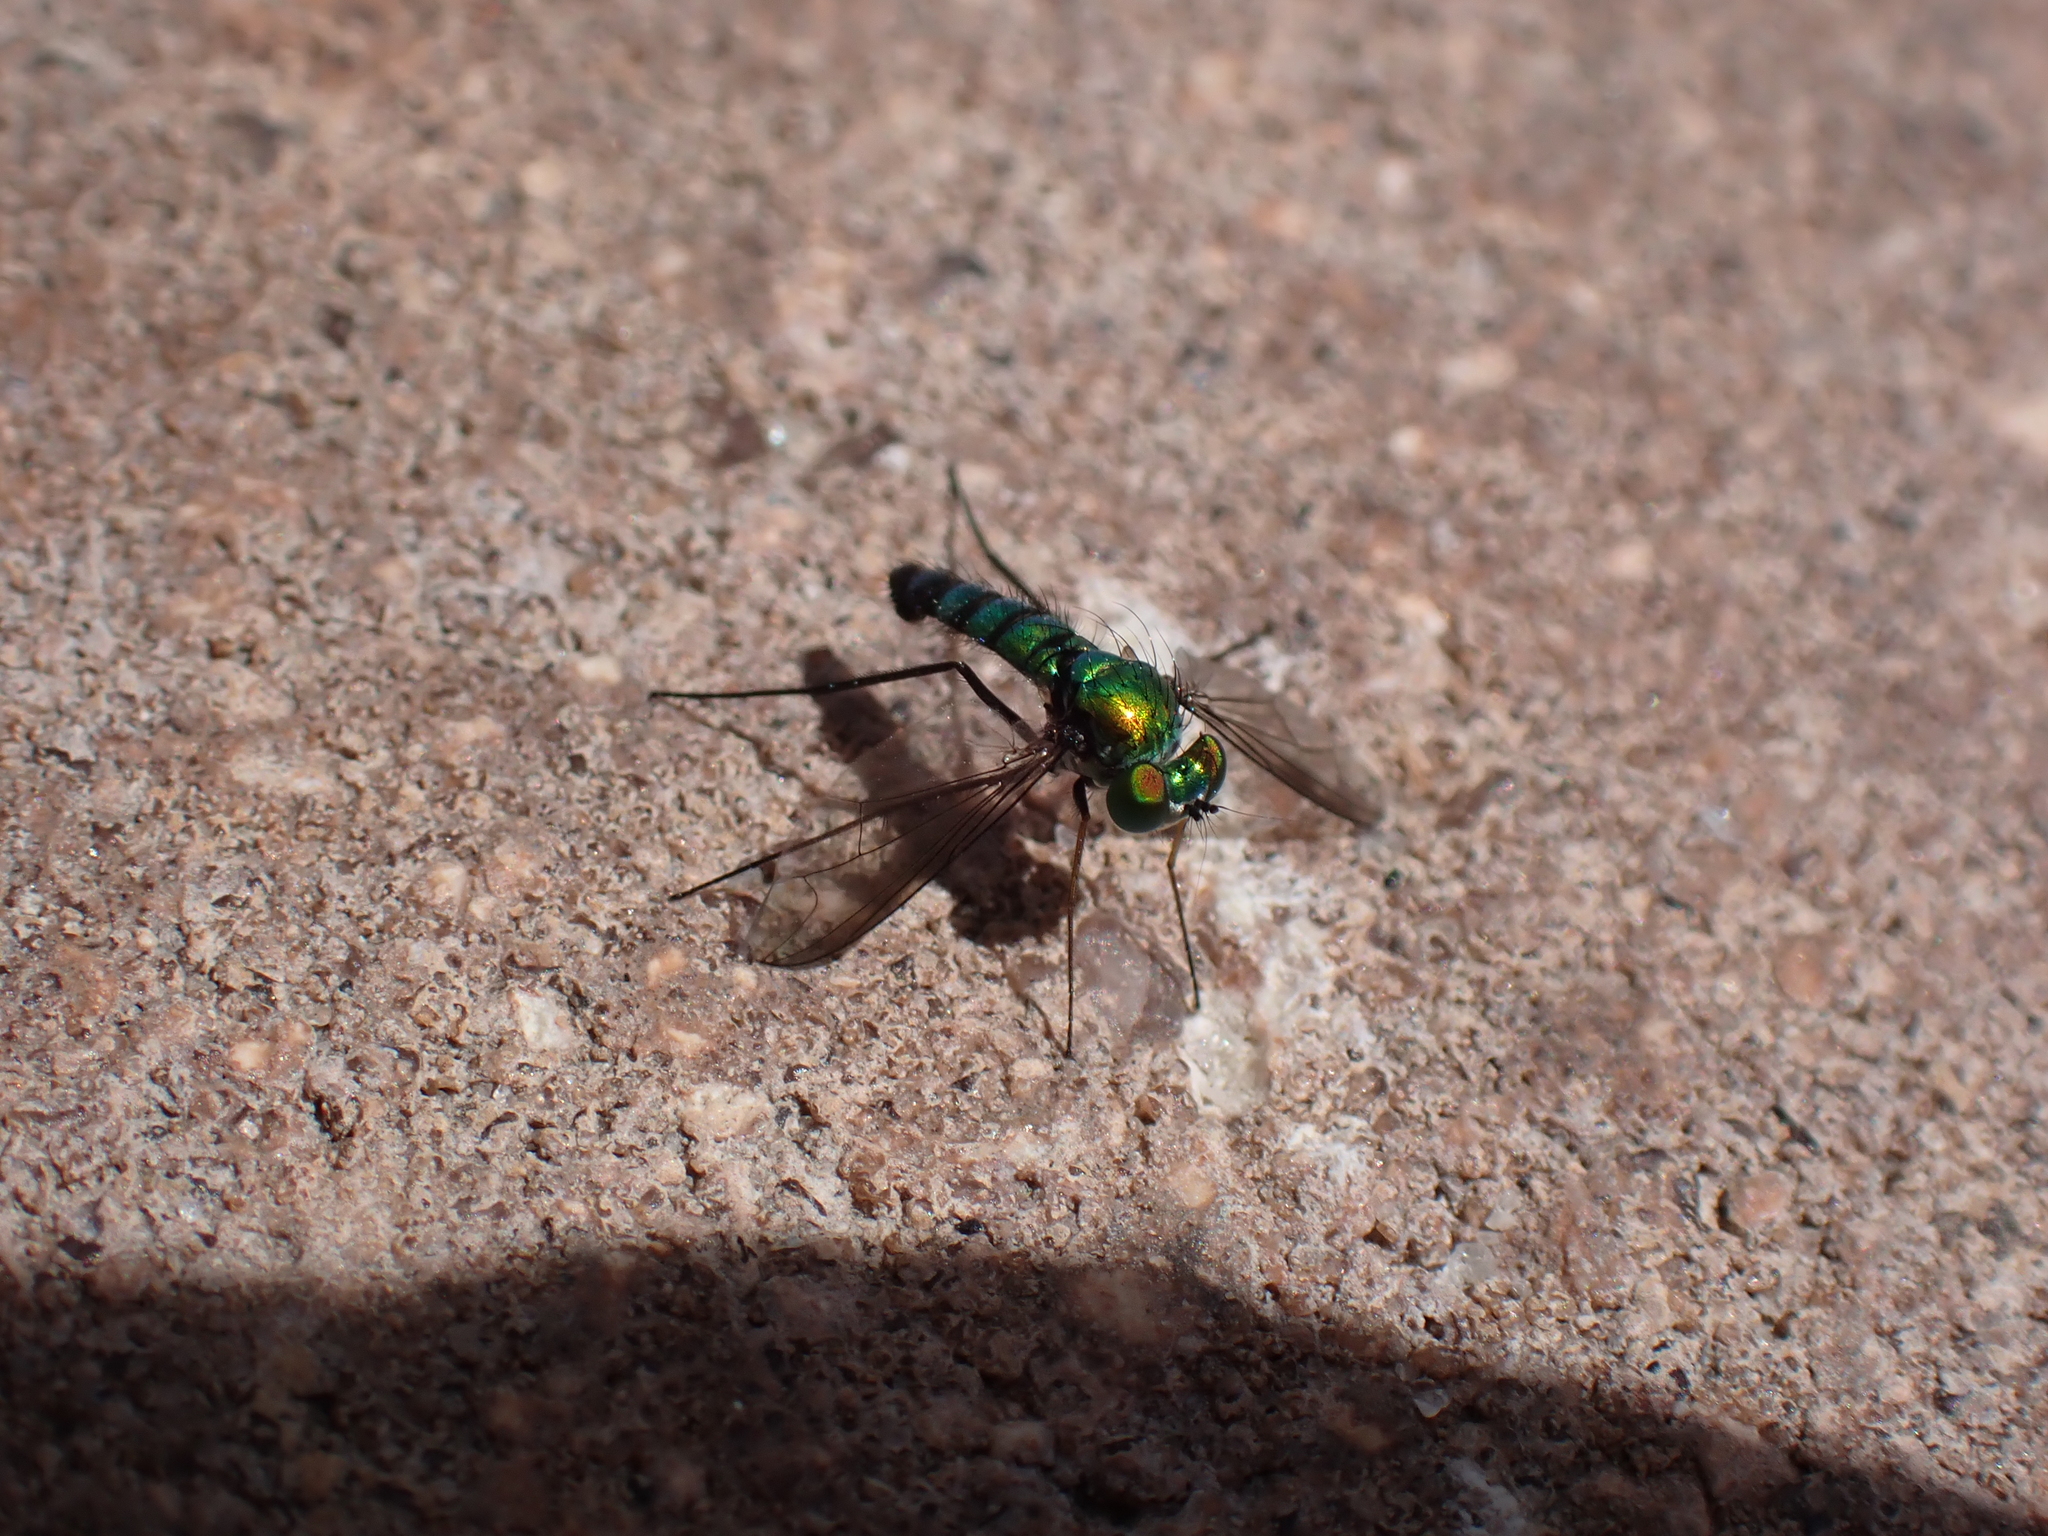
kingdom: Animalia
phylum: Arthropoda
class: Insecta
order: Diptera
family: Dolichopodidae
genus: Condylostylus
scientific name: Condylostylus longicornis
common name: Long-legged fly
